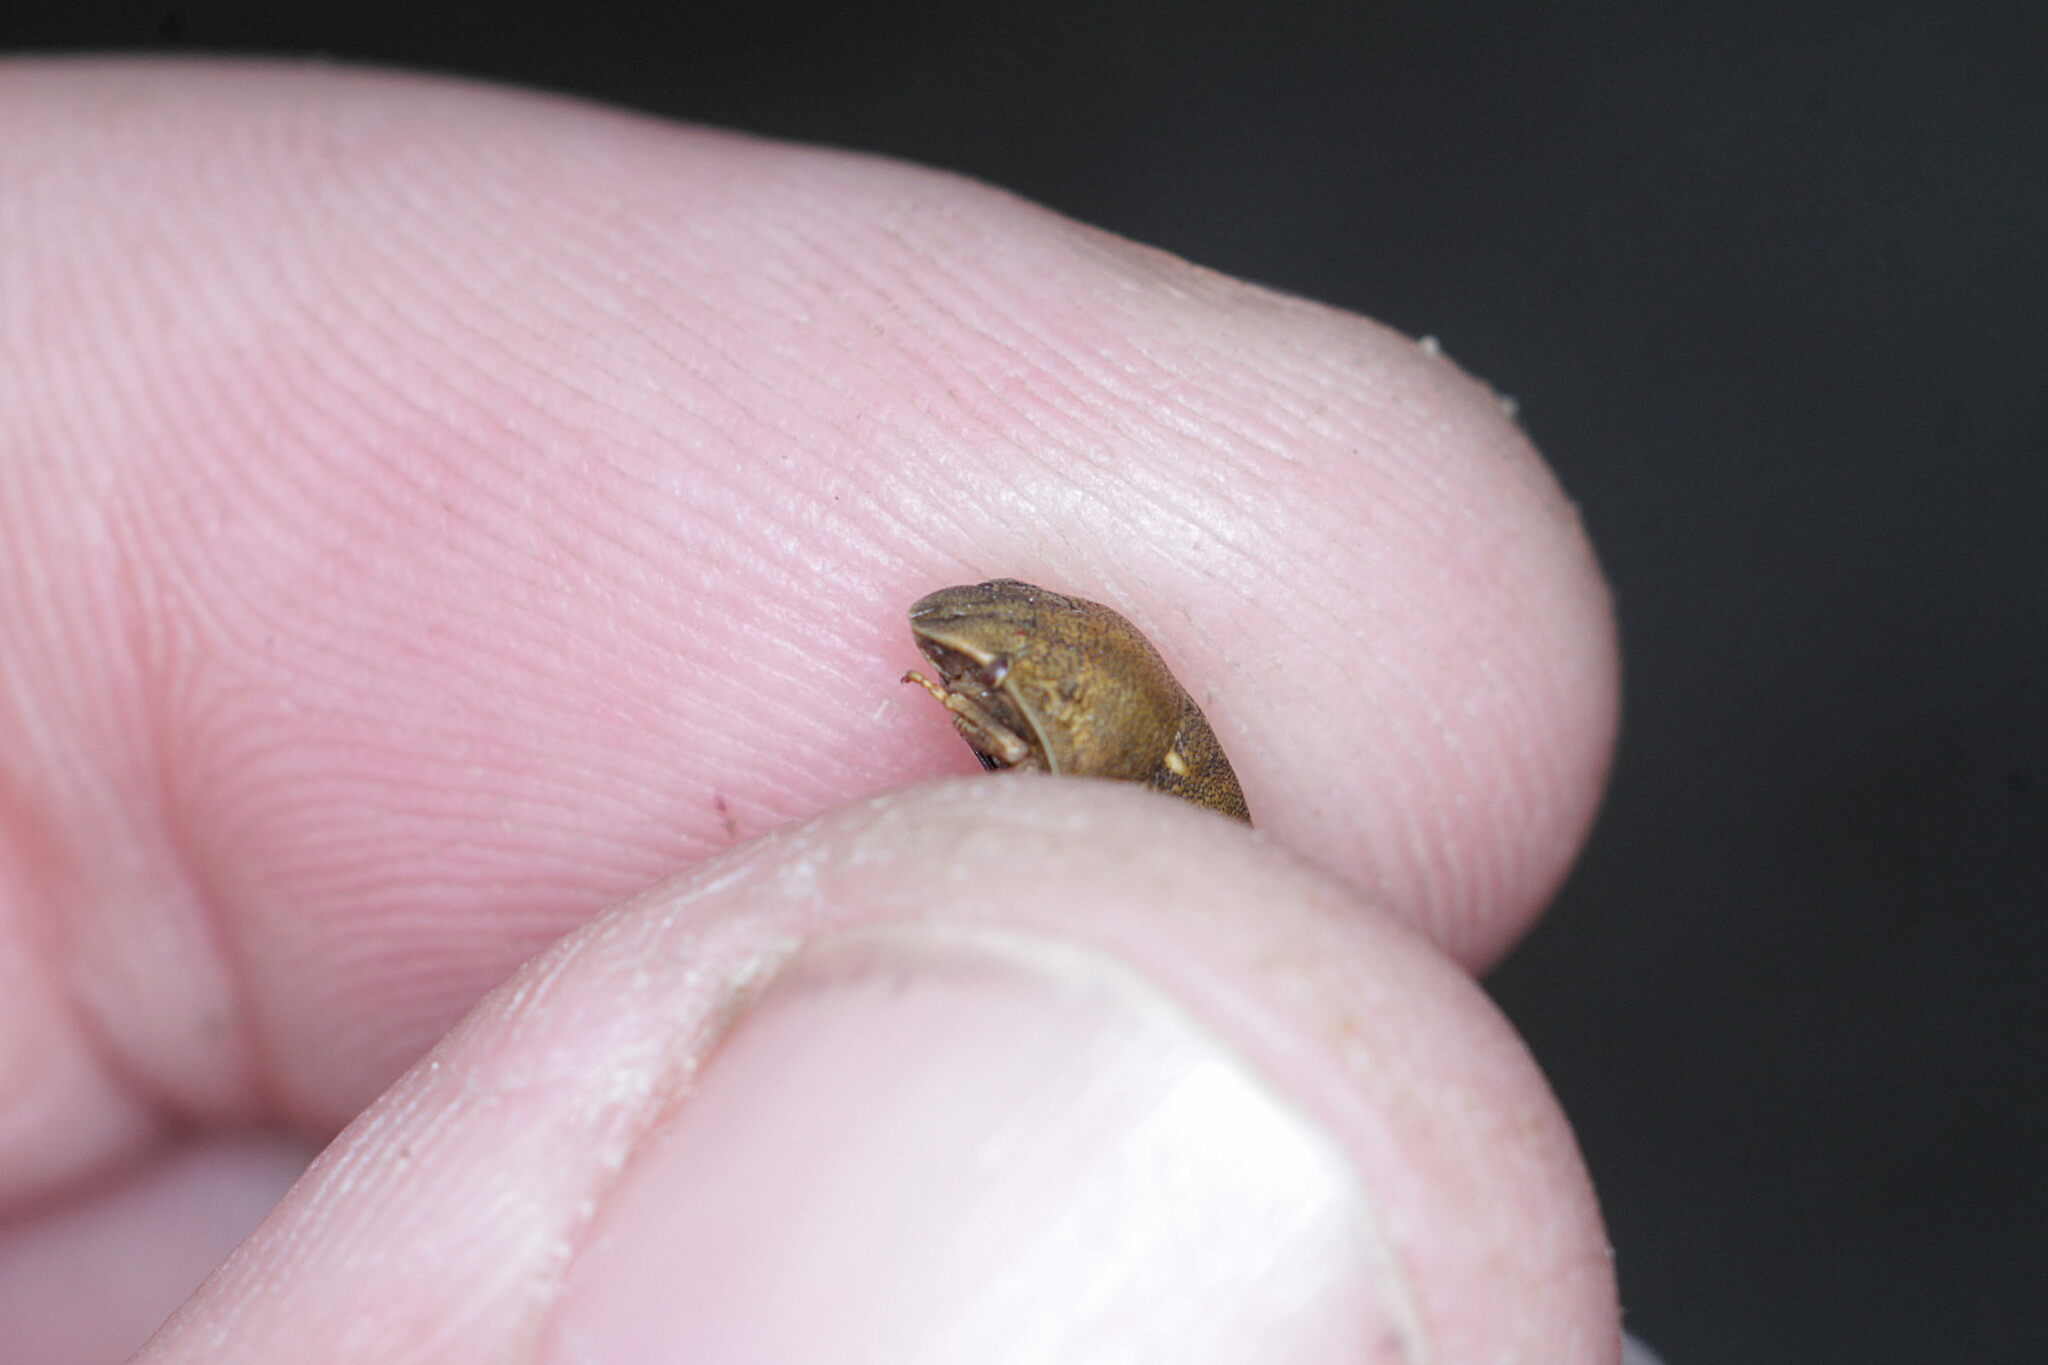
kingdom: Animalia
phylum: Arthropoda
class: Insecta
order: Hemiptera
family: Scutelleridae
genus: Eurygaster
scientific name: Eurygaster testudinaria
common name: Tortoise bug
